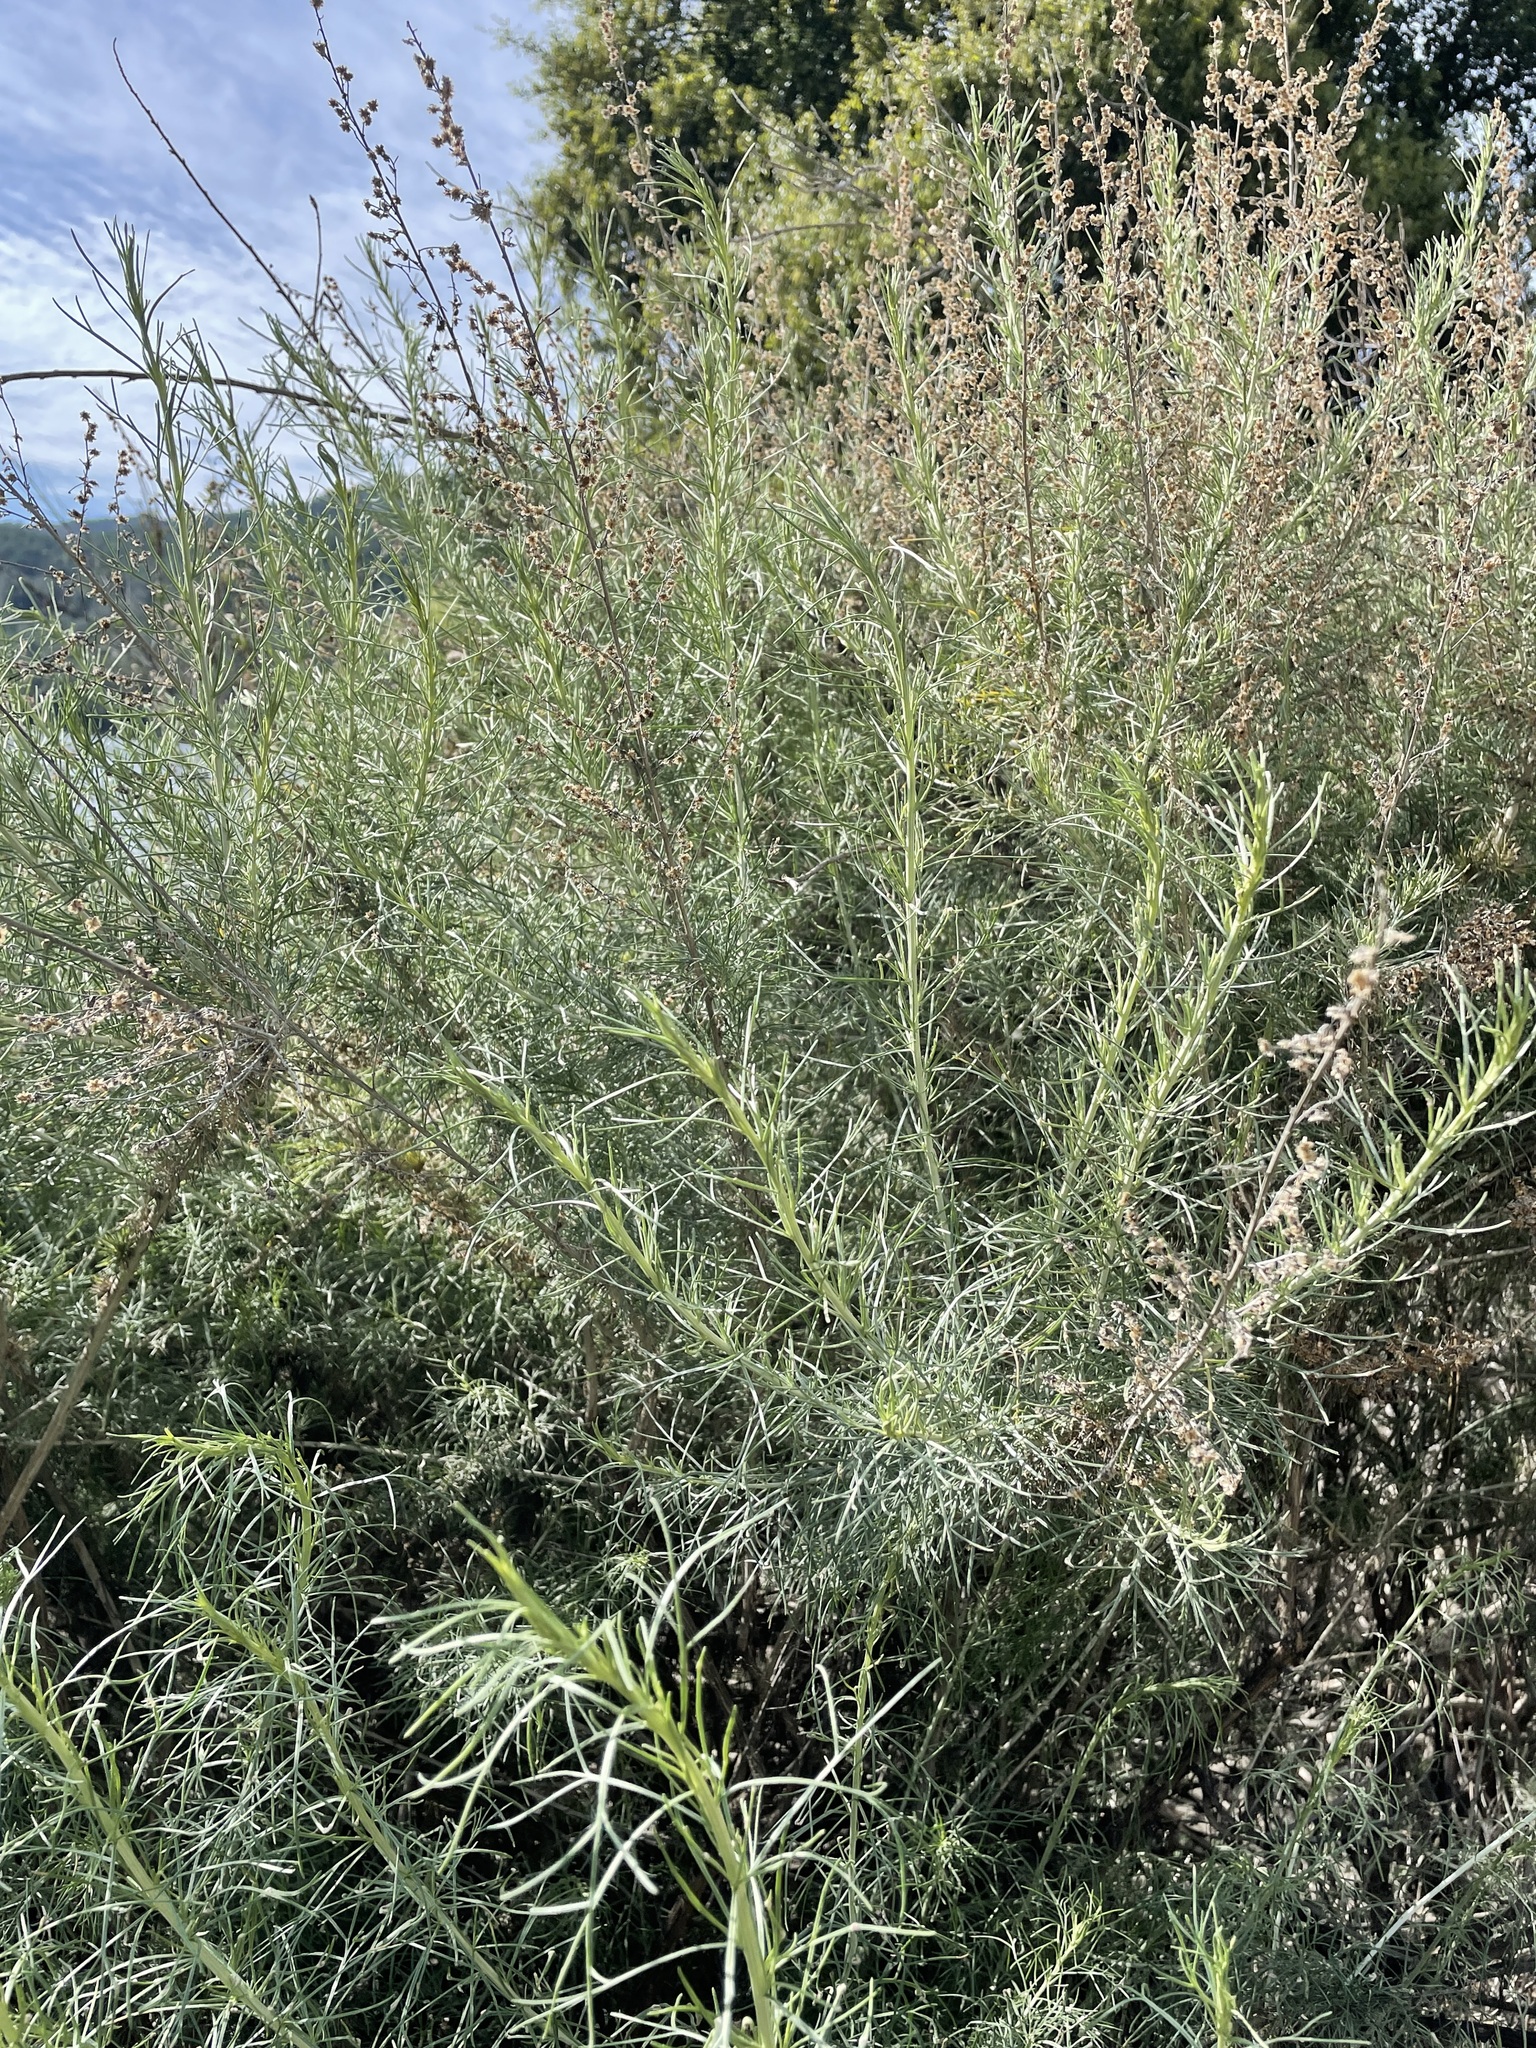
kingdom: Plantae
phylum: Tracheophyta
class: Magnoliopsida
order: Asterales
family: Asteraceae
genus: Artemisia
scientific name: Artemisia californica
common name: California sagebrush
